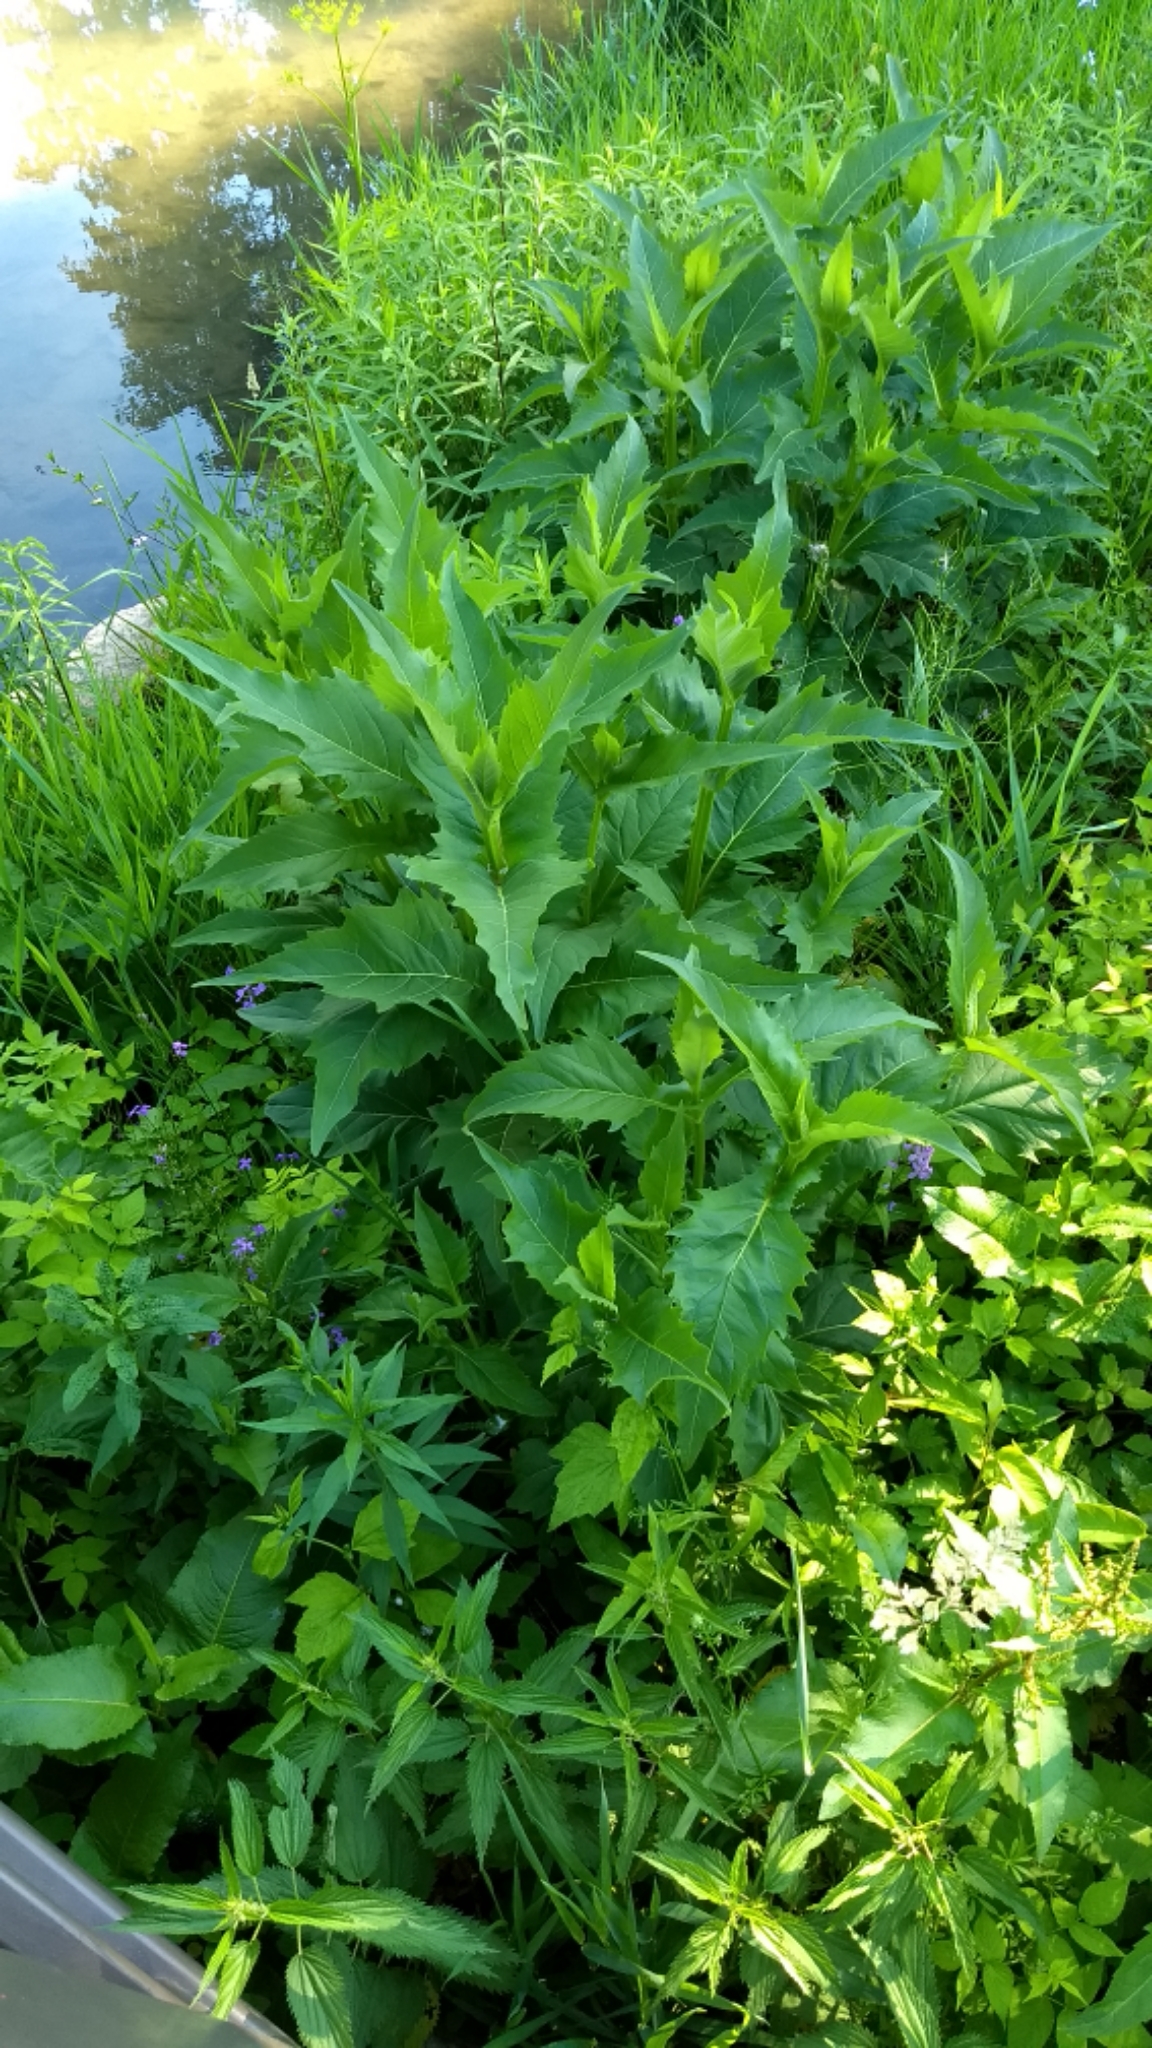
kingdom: Plantae
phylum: Tracheophyta
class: Magnoliopsida
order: Asterales
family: Asteraceae
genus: Silphium
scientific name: Silphium perfoliatum
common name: Cup-plant
